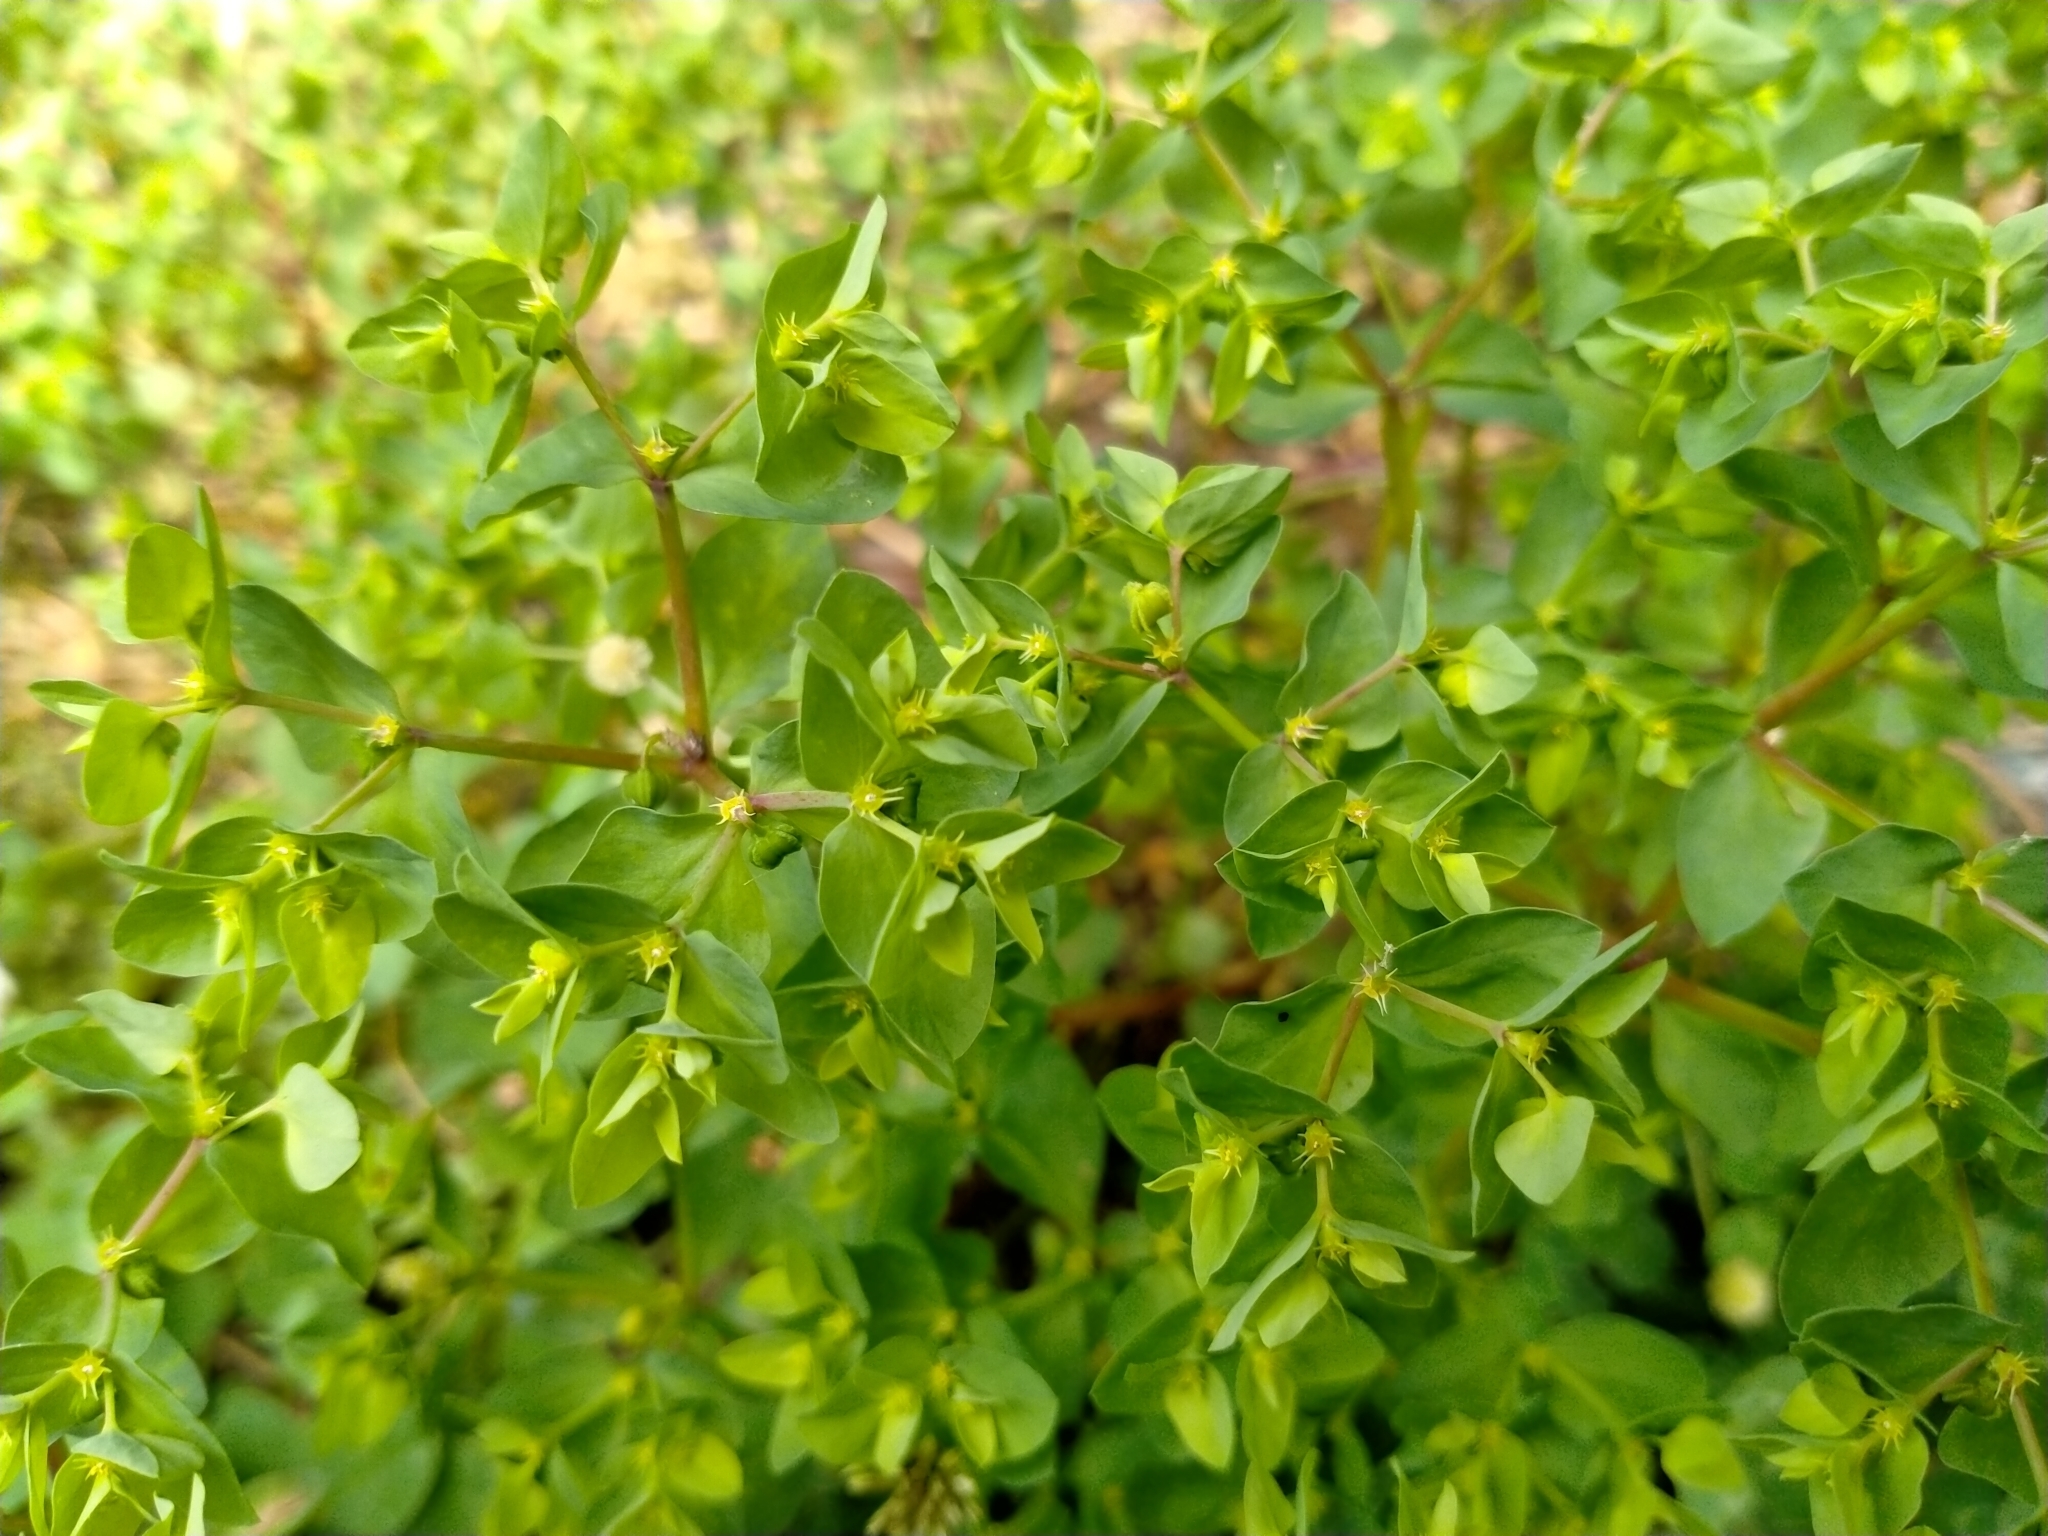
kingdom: Plantae
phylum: Tracheophyta
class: Magnoliopsida
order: Malpighiales
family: Euphorbiaceae
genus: Euphorbia
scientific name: Euphorbia peplus
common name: Petty spurge
